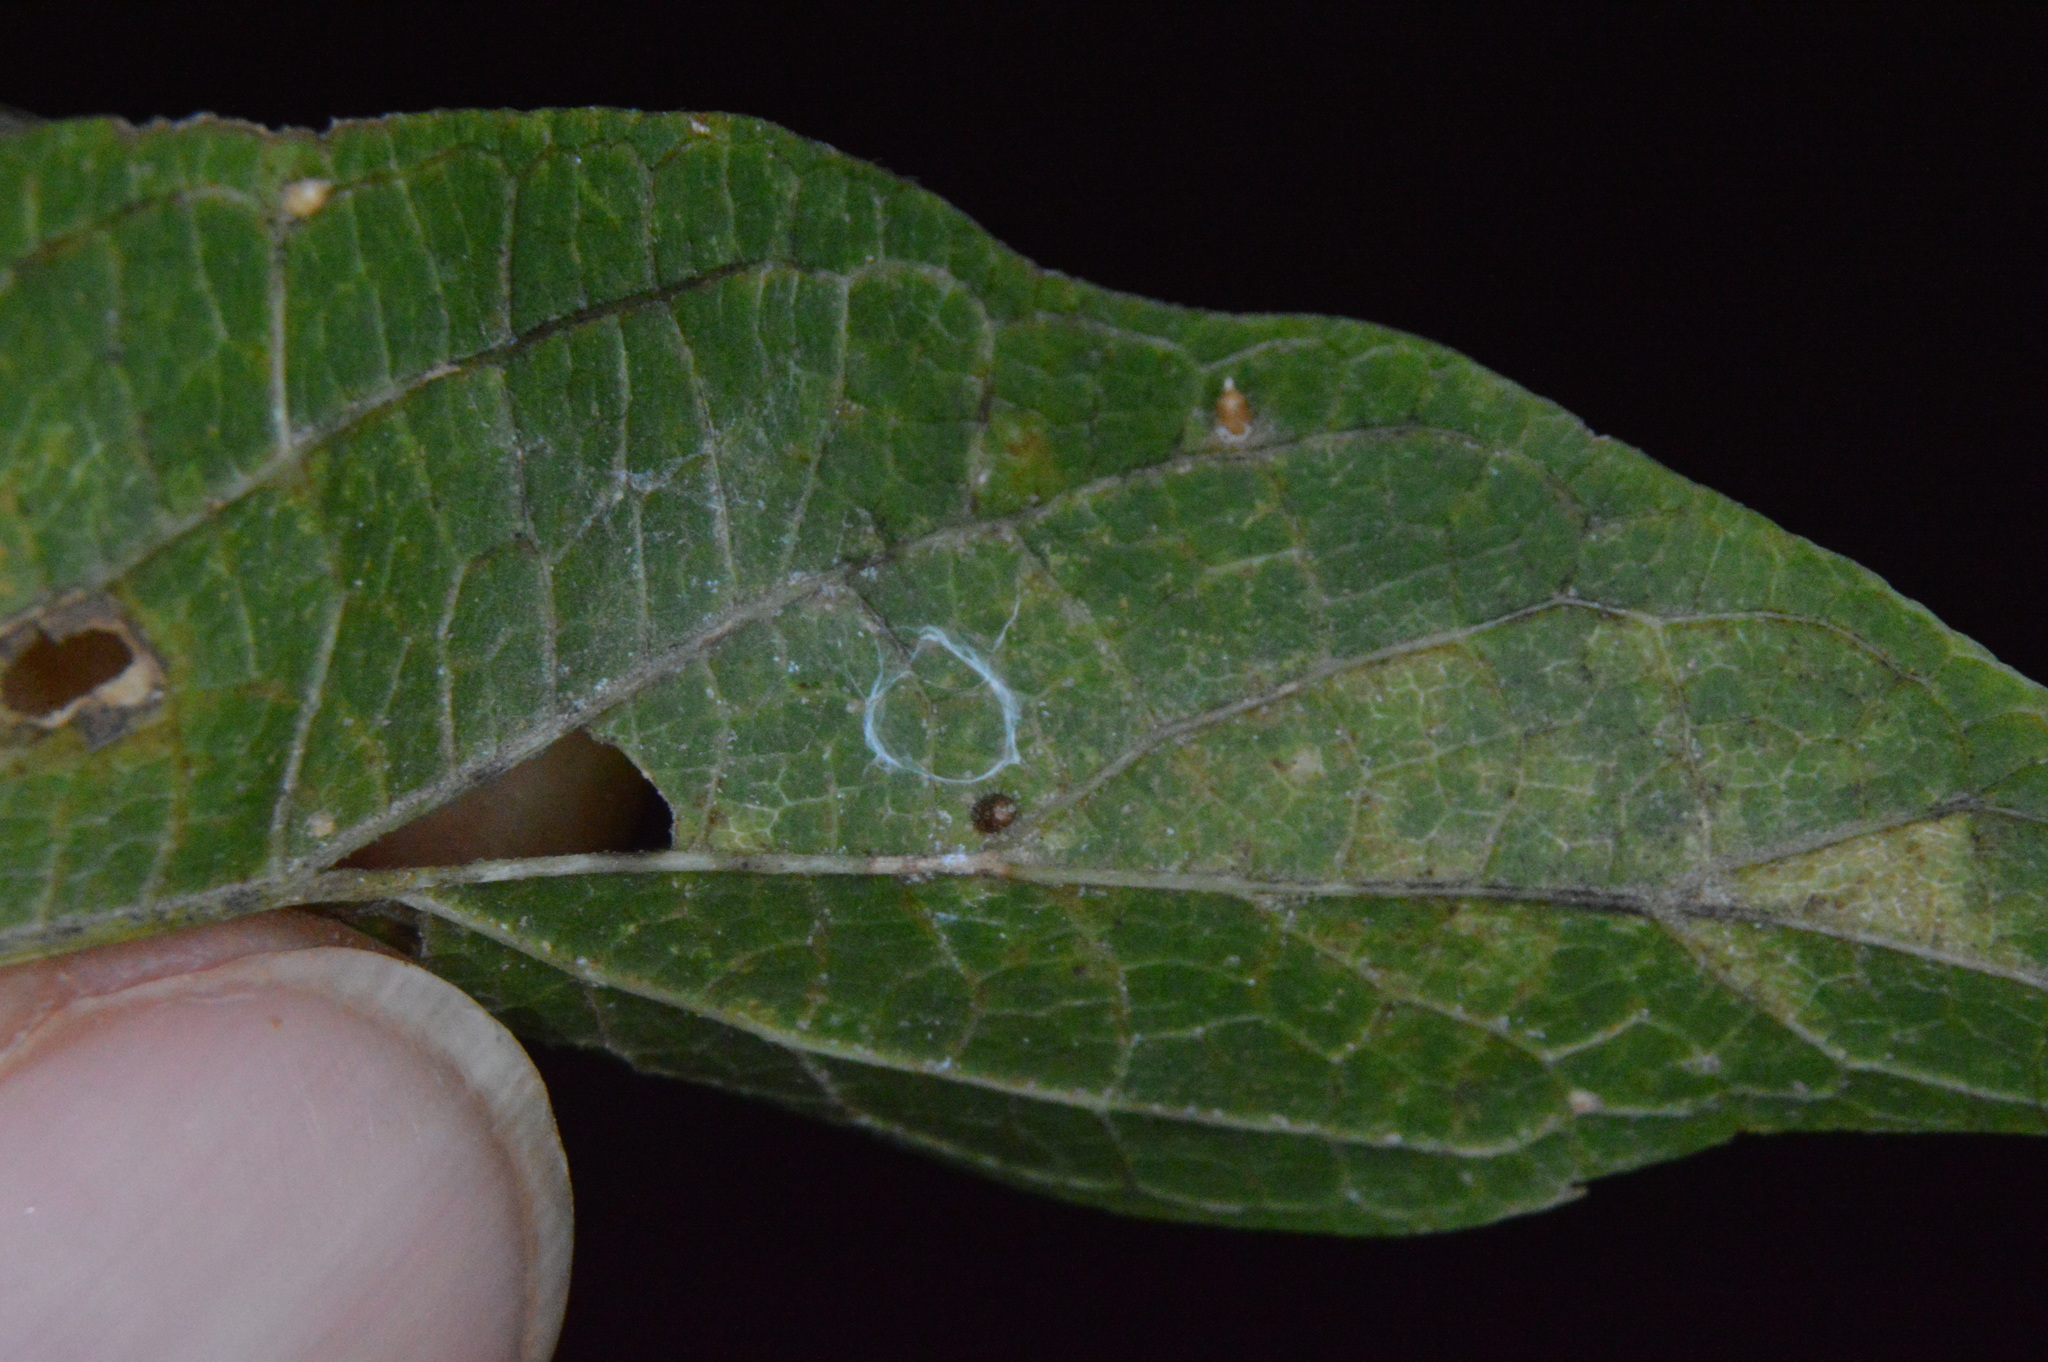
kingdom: Animalia
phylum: Arthropoda
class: Insecta
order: Diptera
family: Cecidomyiidae
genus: Celticecis
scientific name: Celticecis cupiformis
